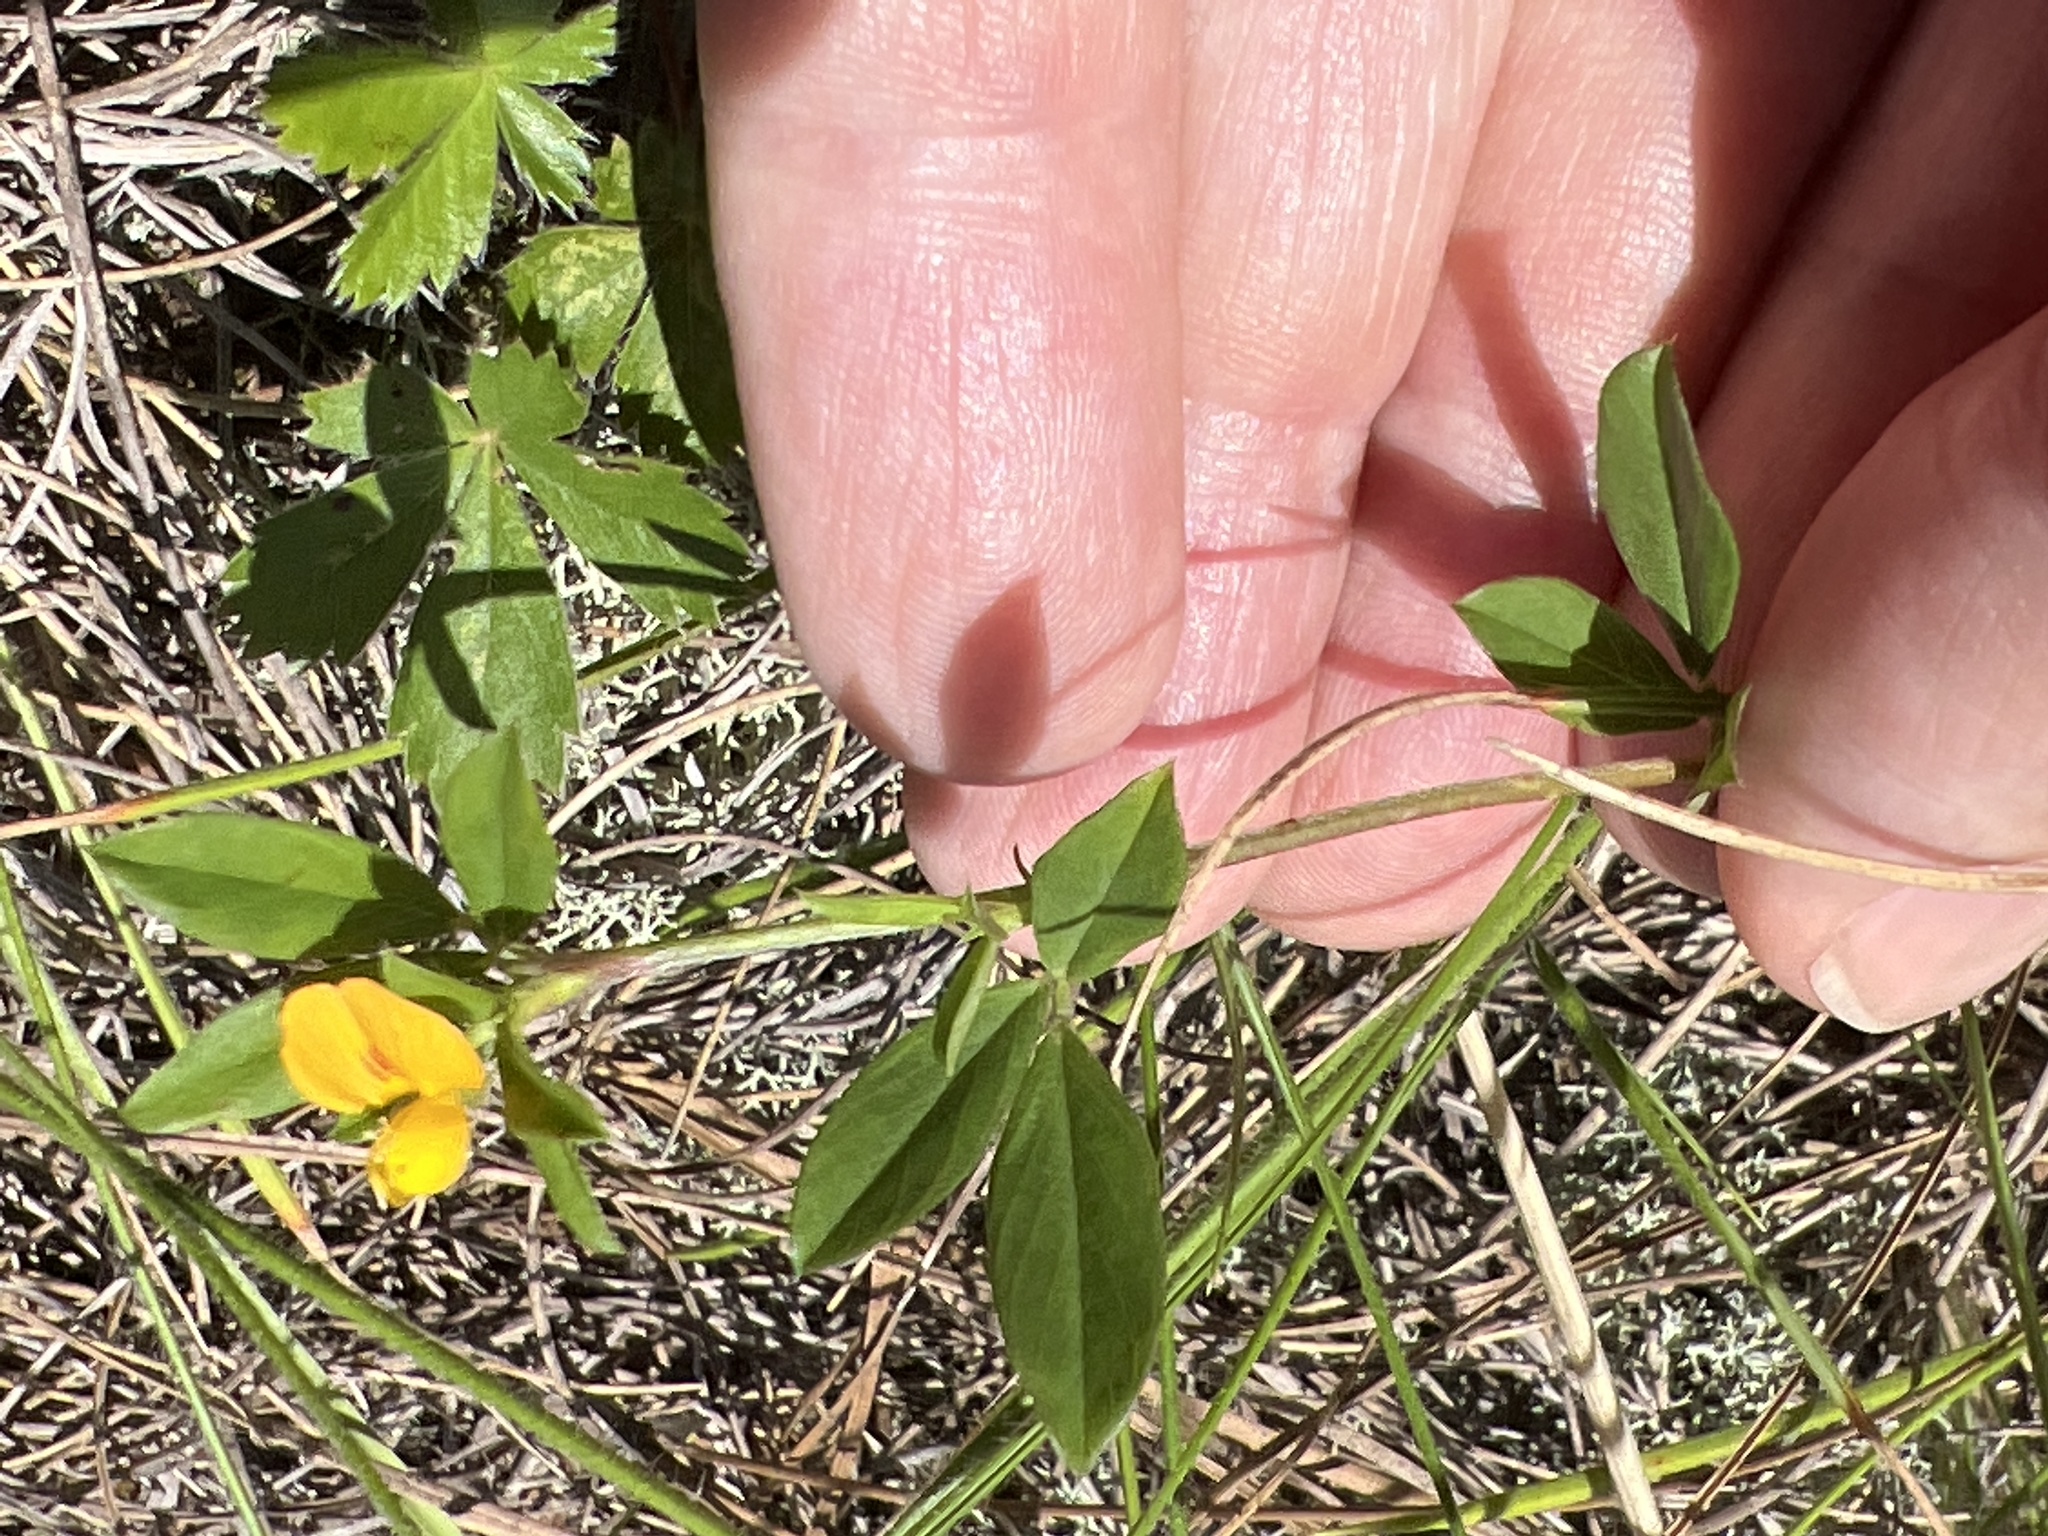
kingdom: Plantae
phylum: Tracheophyta
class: Magnoliopsida
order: Fabales
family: Fabaceae
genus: Stylosanthes
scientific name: Stylosanthes biflora
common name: Two-flower pencil-flower
